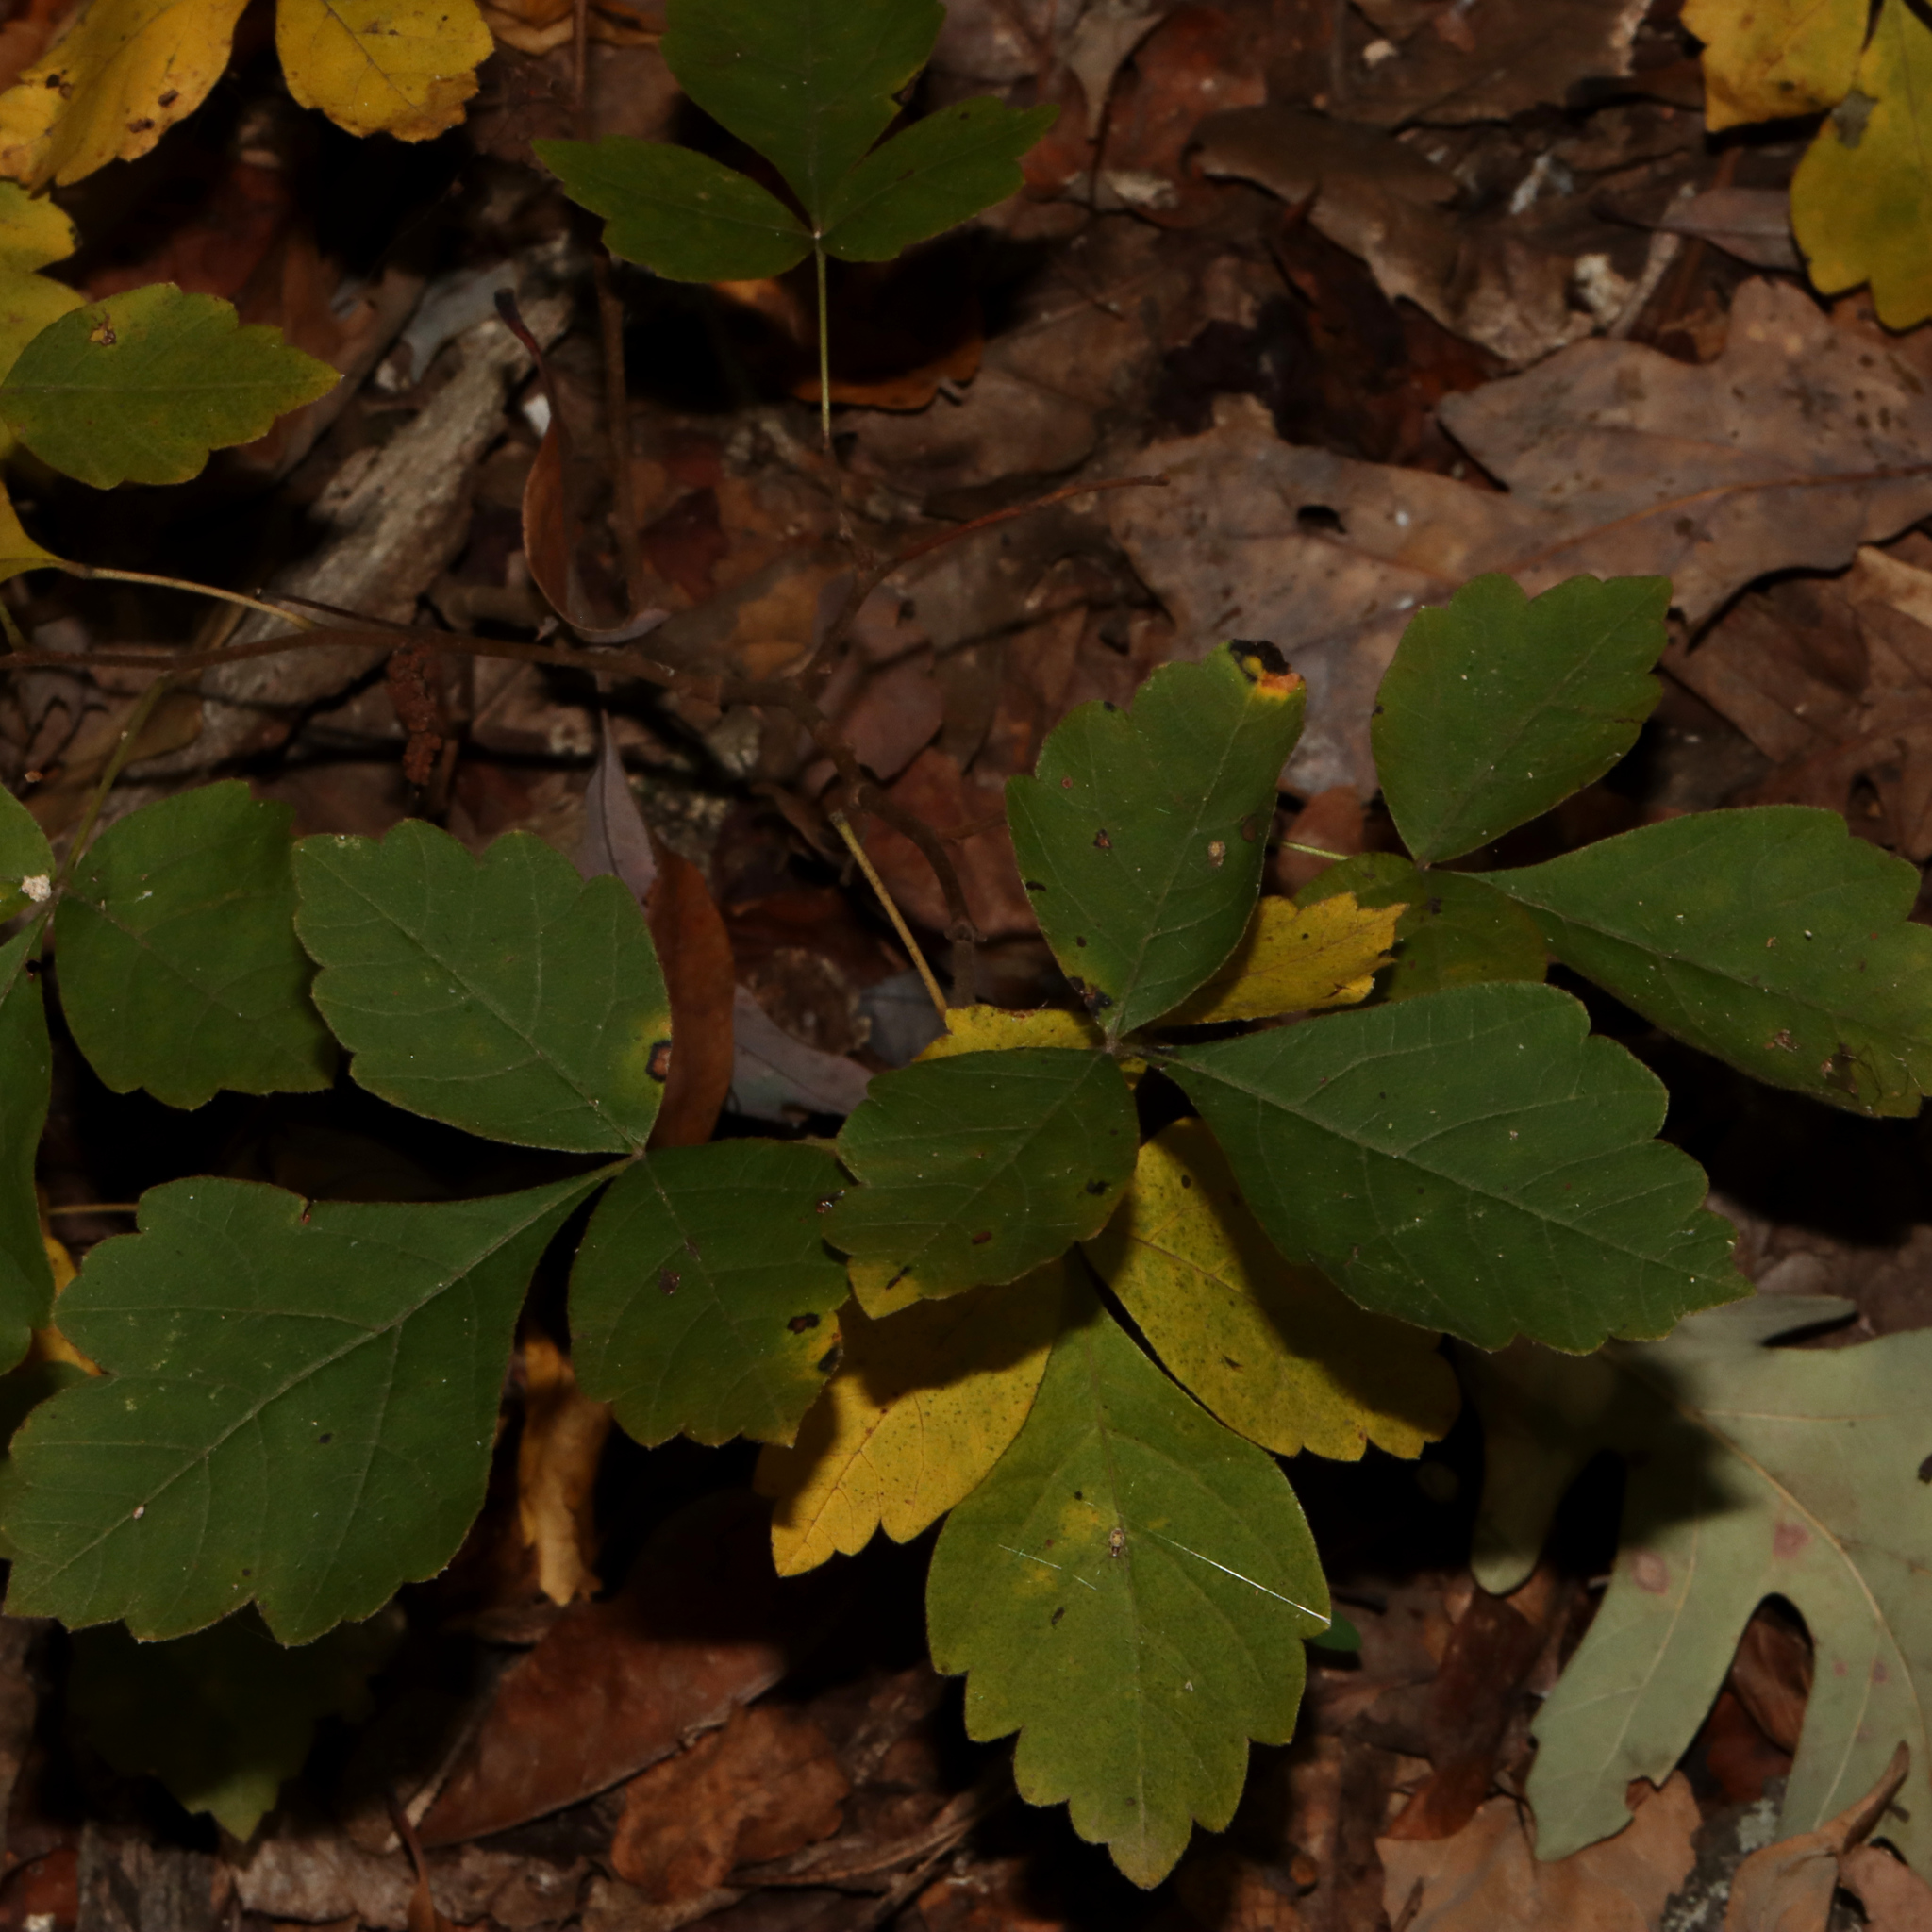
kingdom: Plantae
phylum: Tracheophyta
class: Magnoliopsida
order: Sapindales
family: Anacardiaceae
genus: Rhus
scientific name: Rhus aromatica
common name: Aromatic sumac
